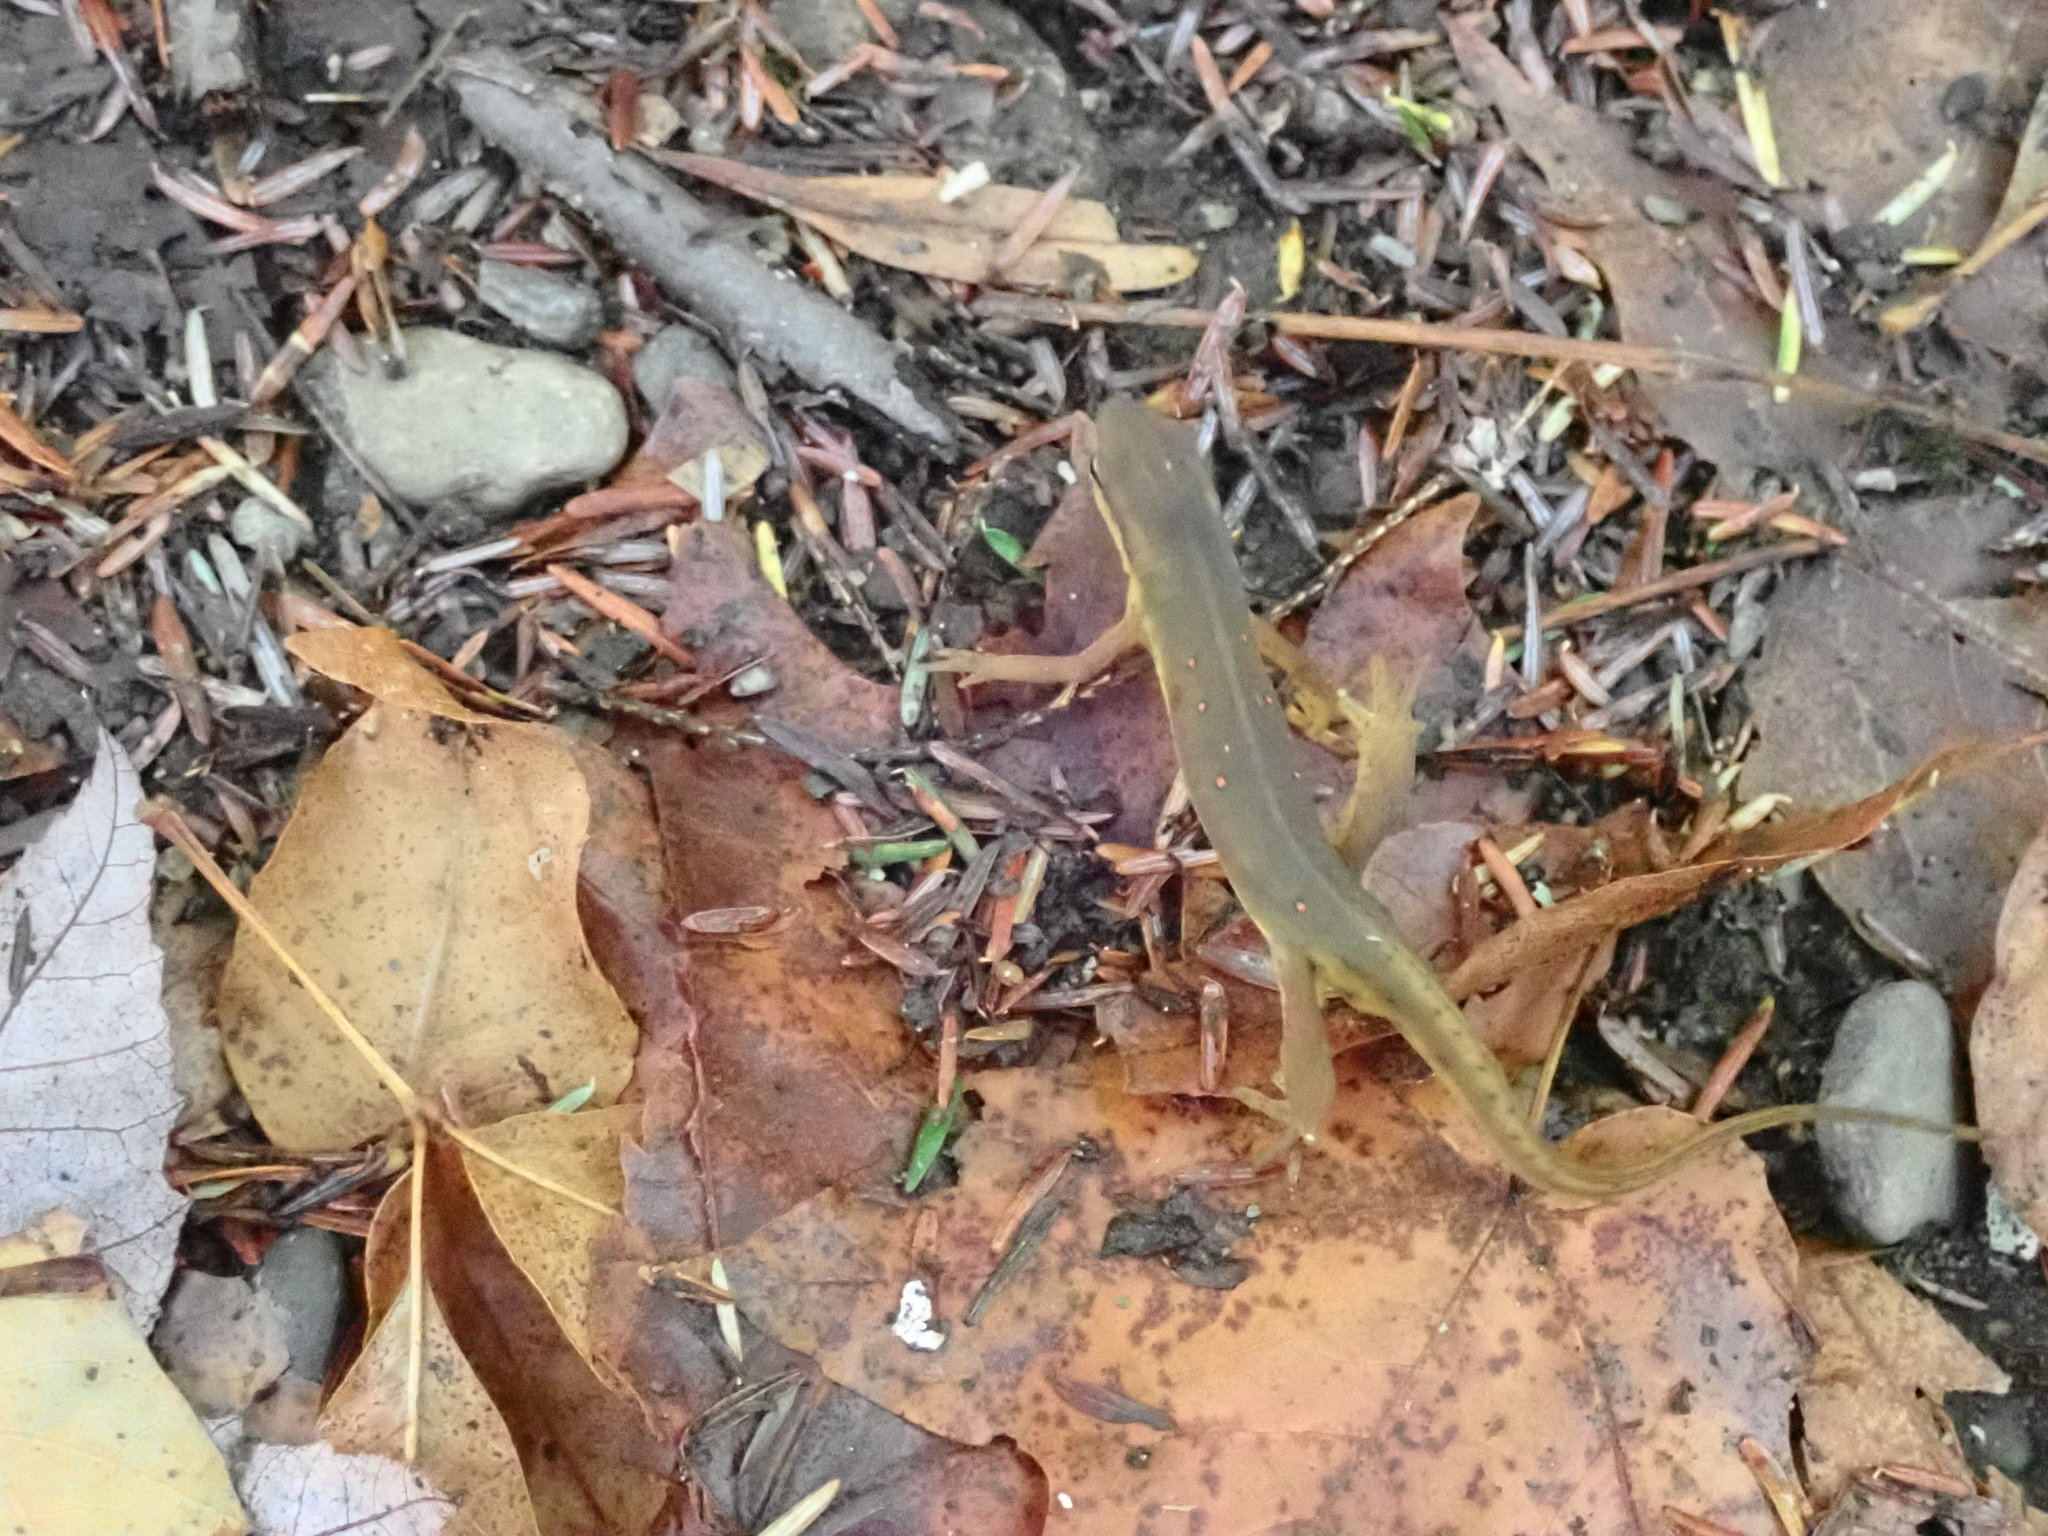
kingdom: Animalia
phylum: Chordata
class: Amphibia
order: Caudata
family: Salamandridae
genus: Notophthalmus
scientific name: Notophthalmus viridescens
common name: Eastern newt
